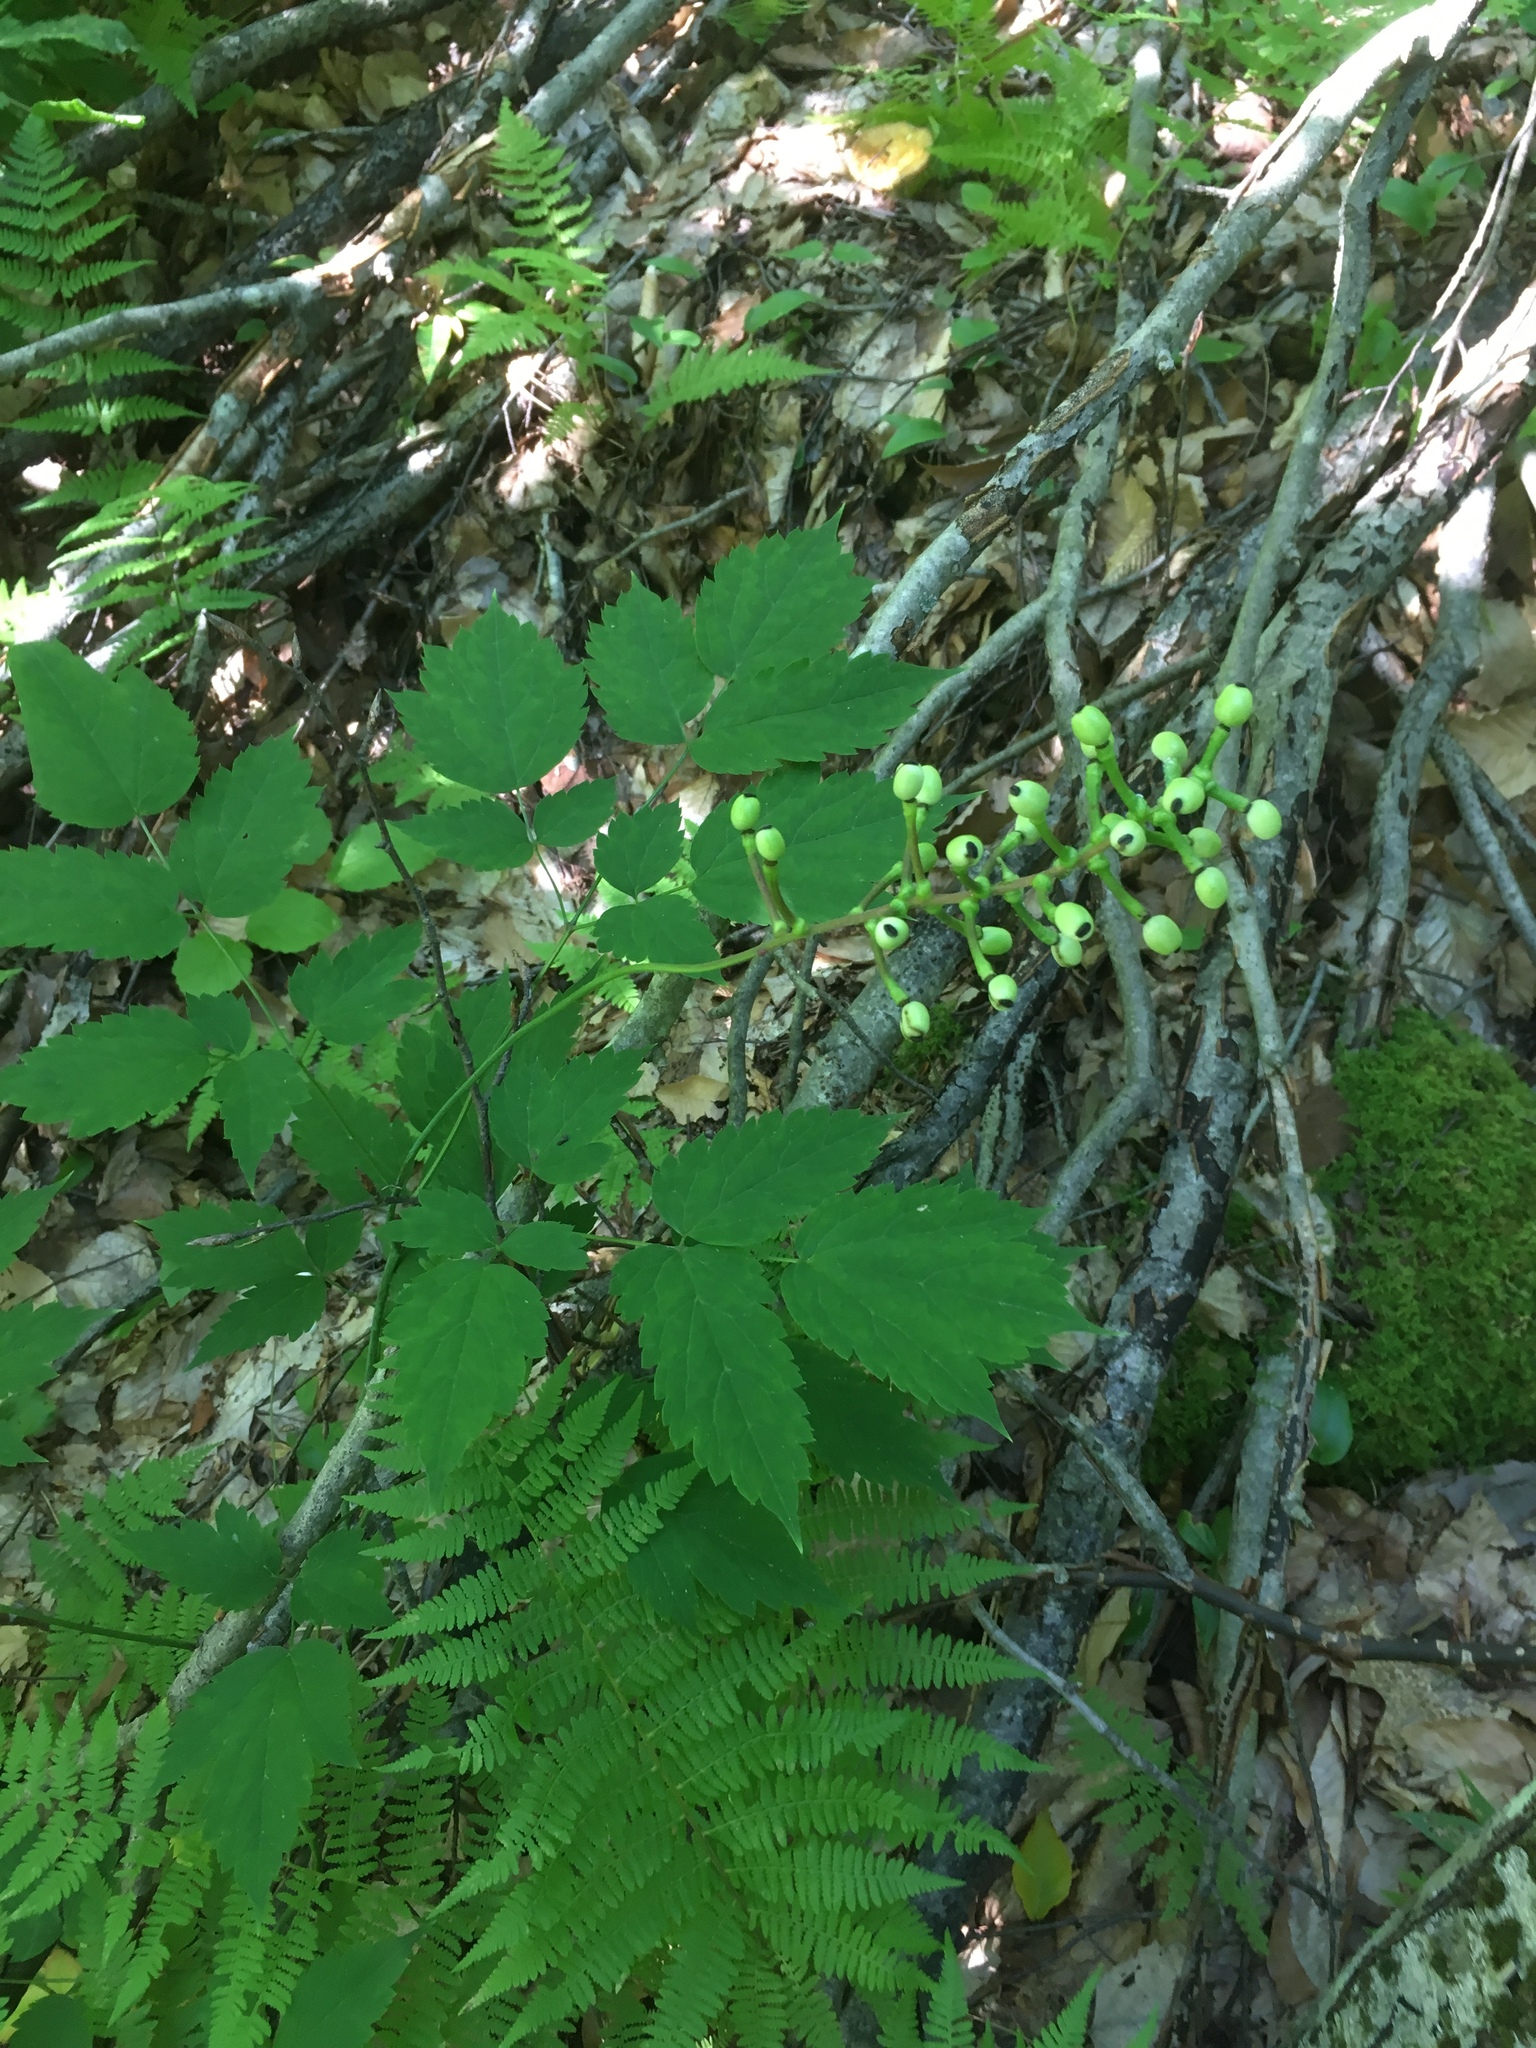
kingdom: Plantae
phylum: Tracheophyta
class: Magnoliopsida
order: Ranunculales
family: Ranunculaceae
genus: Actaea
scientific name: Actaea pachypoda
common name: Doll's-eyes
